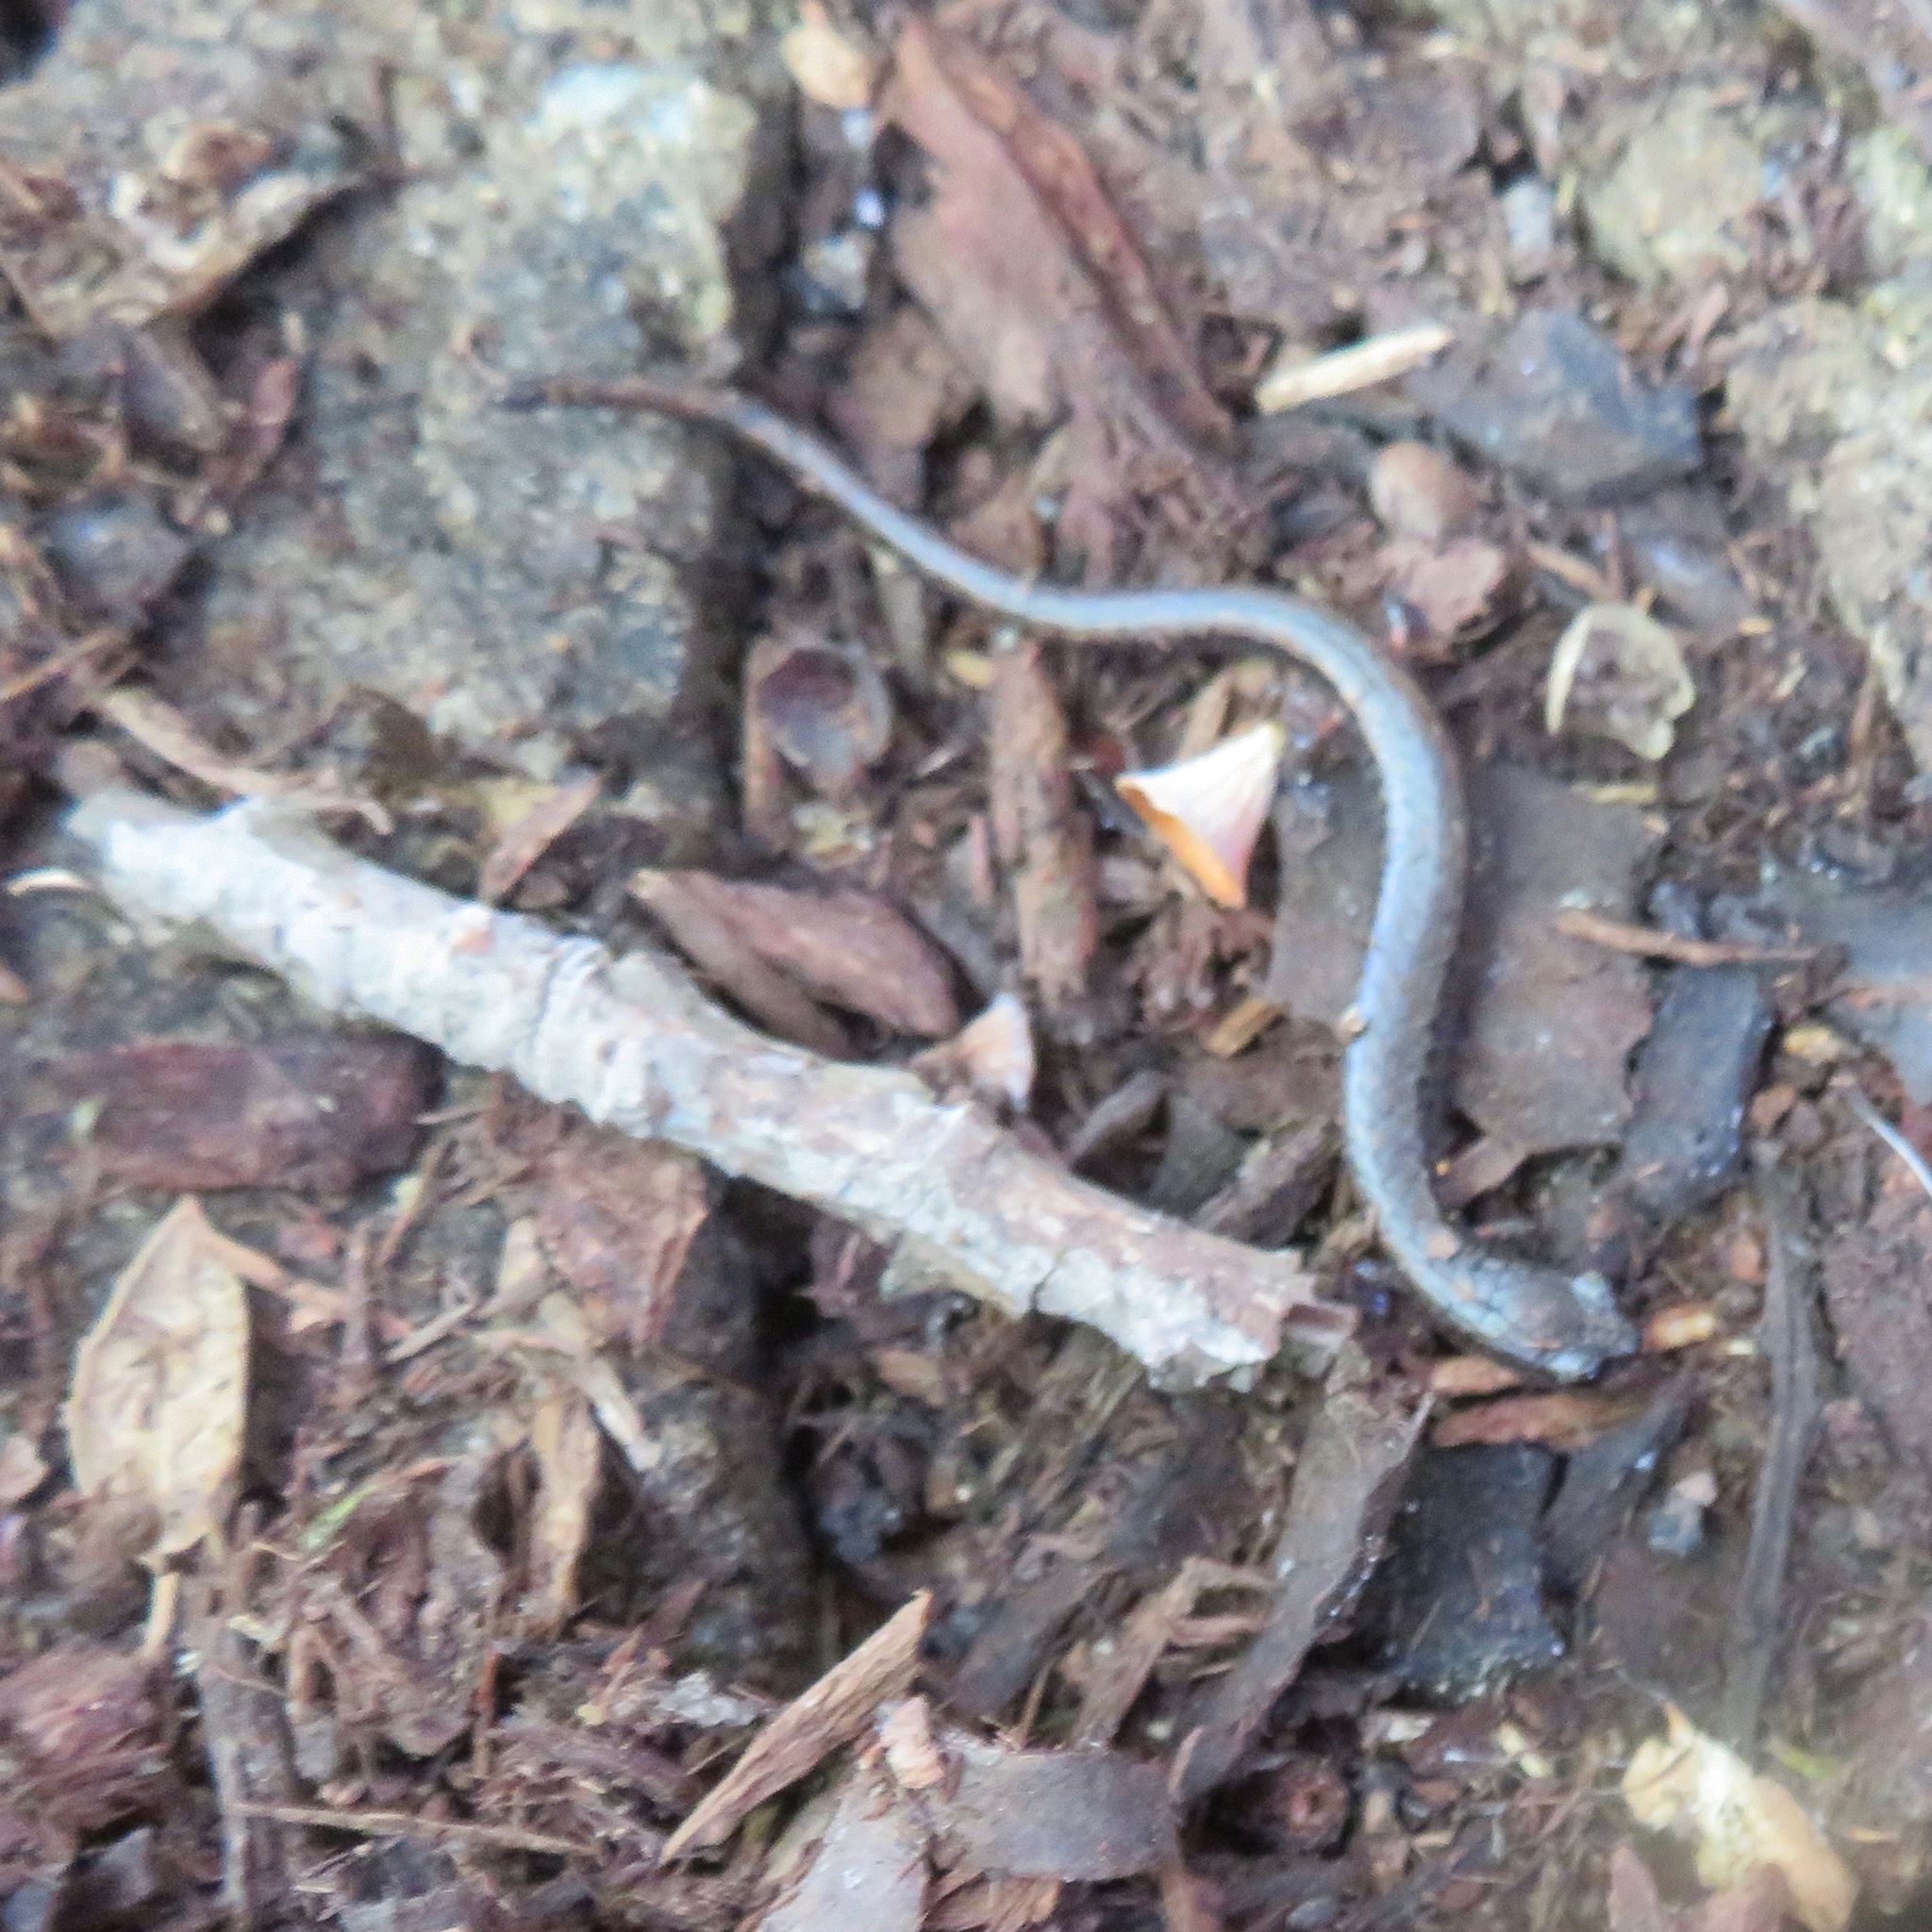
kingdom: Animalia
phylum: Chordata
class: Amphibia
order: Caudata
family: Plethodontidae
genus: Batrachoseps
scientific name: Batrachoseps attenuatus
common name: California slender salamander
